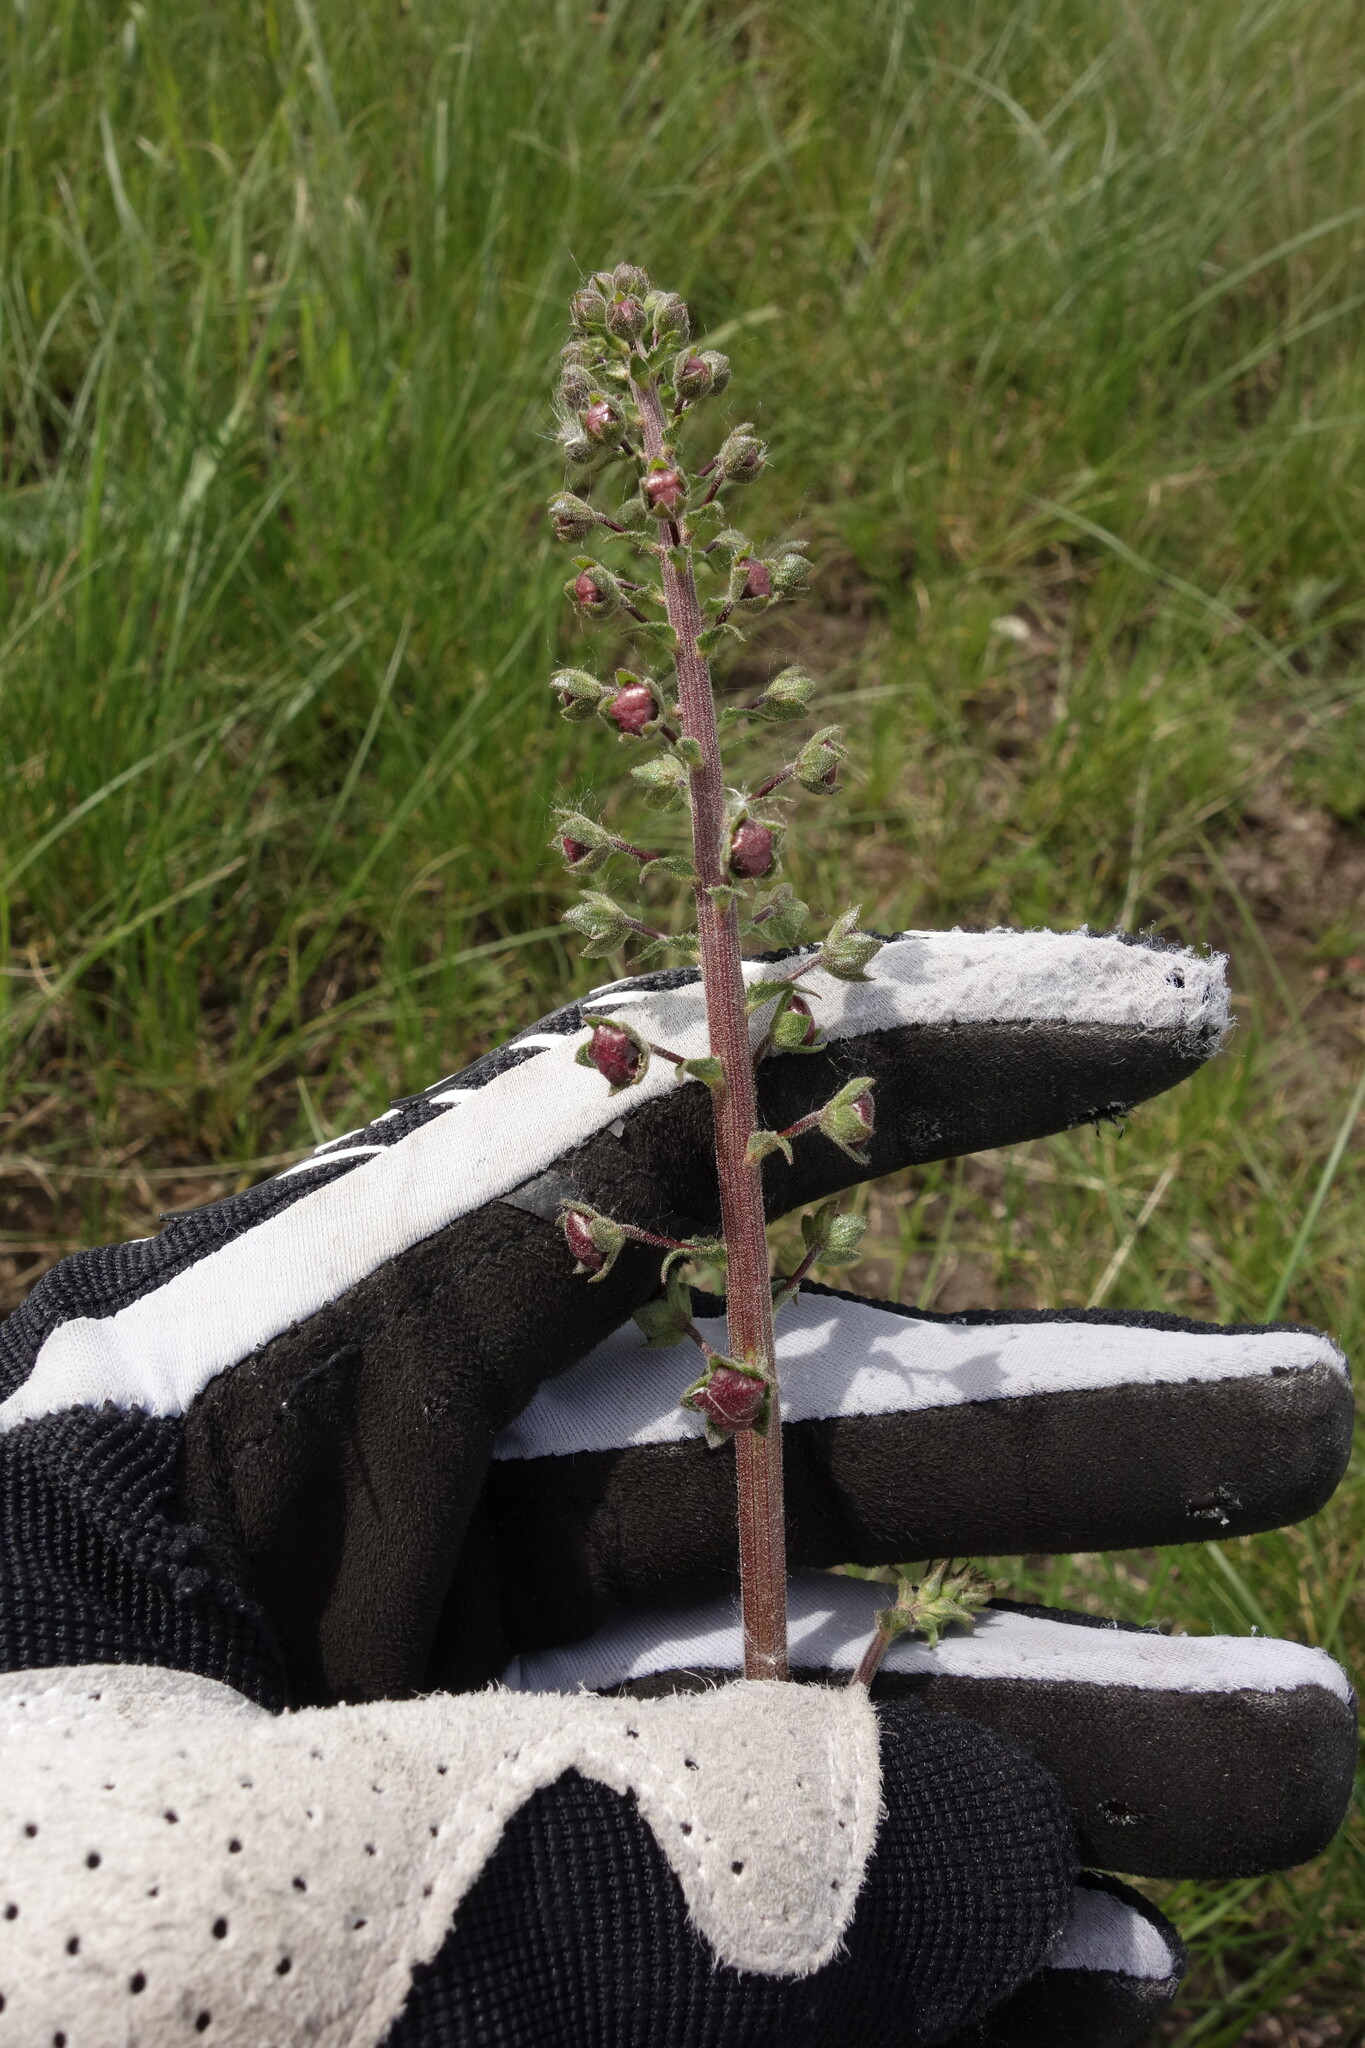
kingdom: Plantae
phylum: Tracheophyta
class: Magnoliopsida
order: Lamiales
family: Scrophulariaceae
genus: Verbascum
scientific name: Verbascum phoeniceum
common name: Purple mullein
